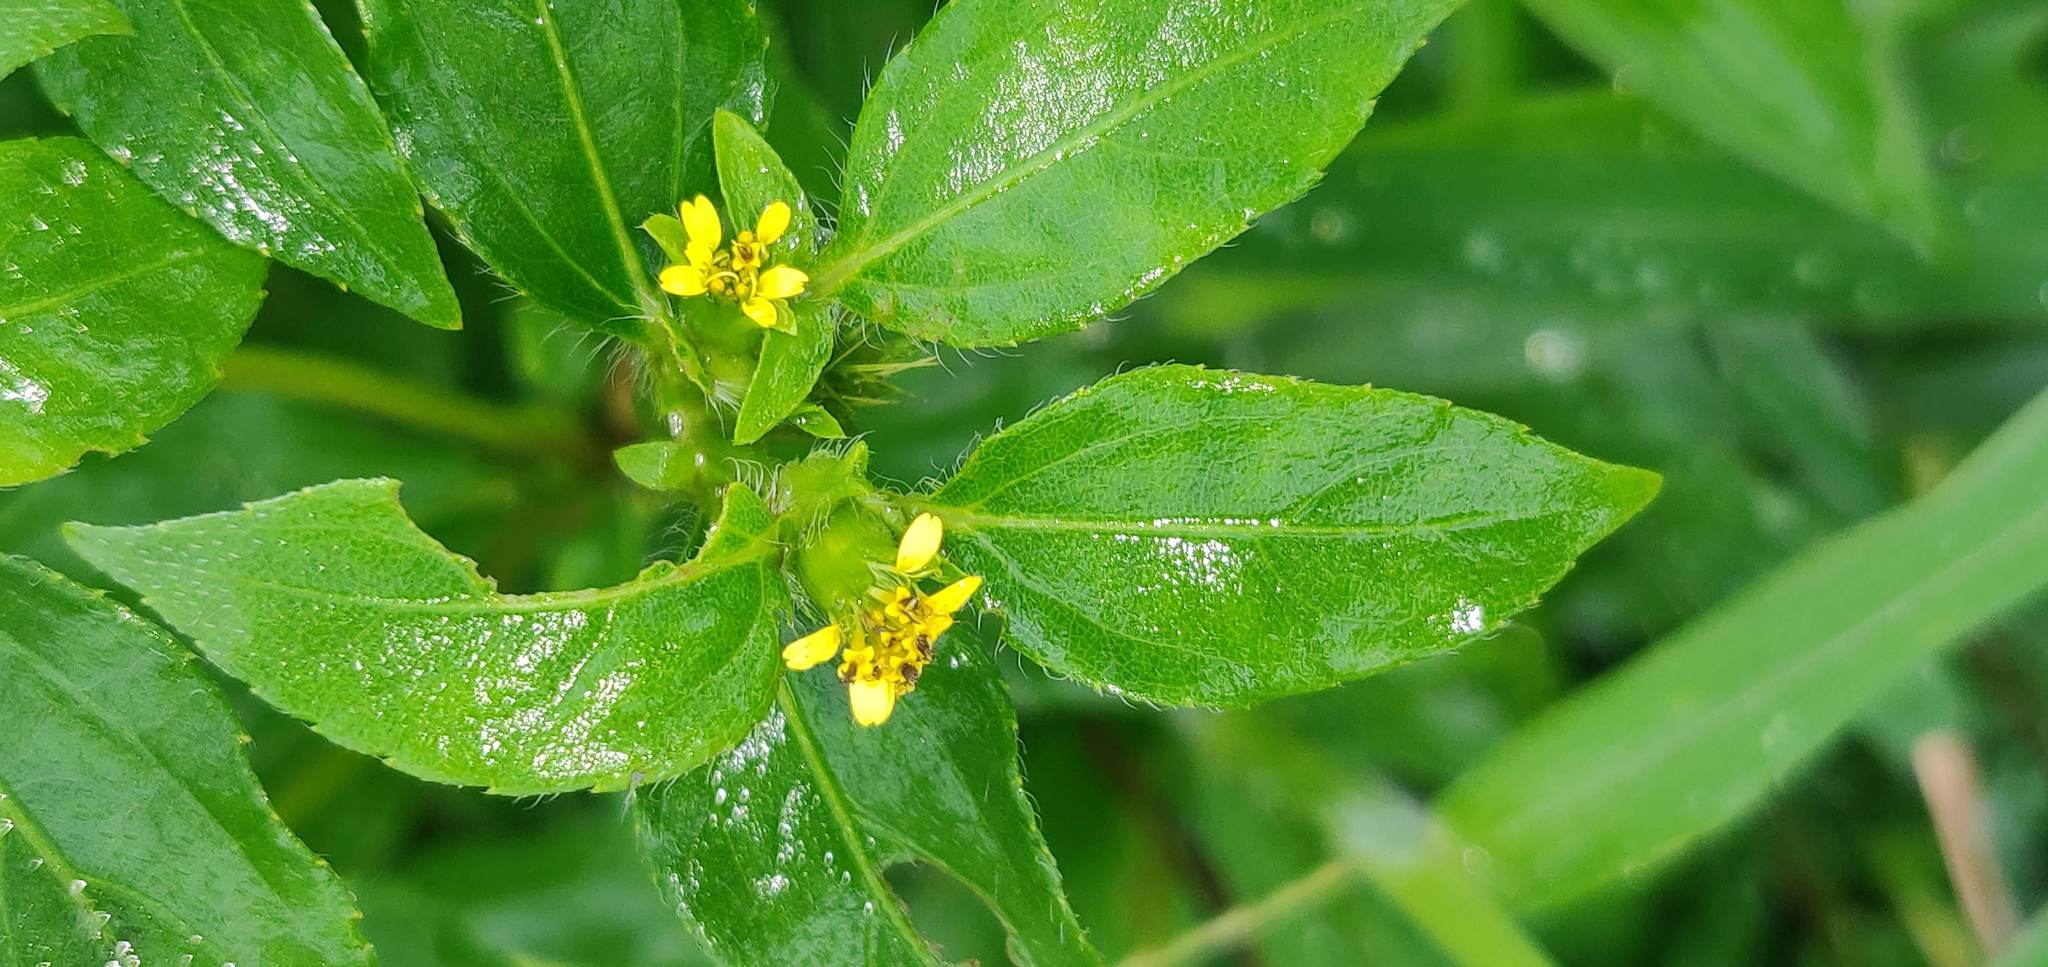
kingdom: Plantae
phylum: Tracheophyta
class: Magnoliopsida
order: Asterales
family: Asteraceae
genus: Synedrella
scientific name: Synedrella nodiflora
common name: Nodeweed
